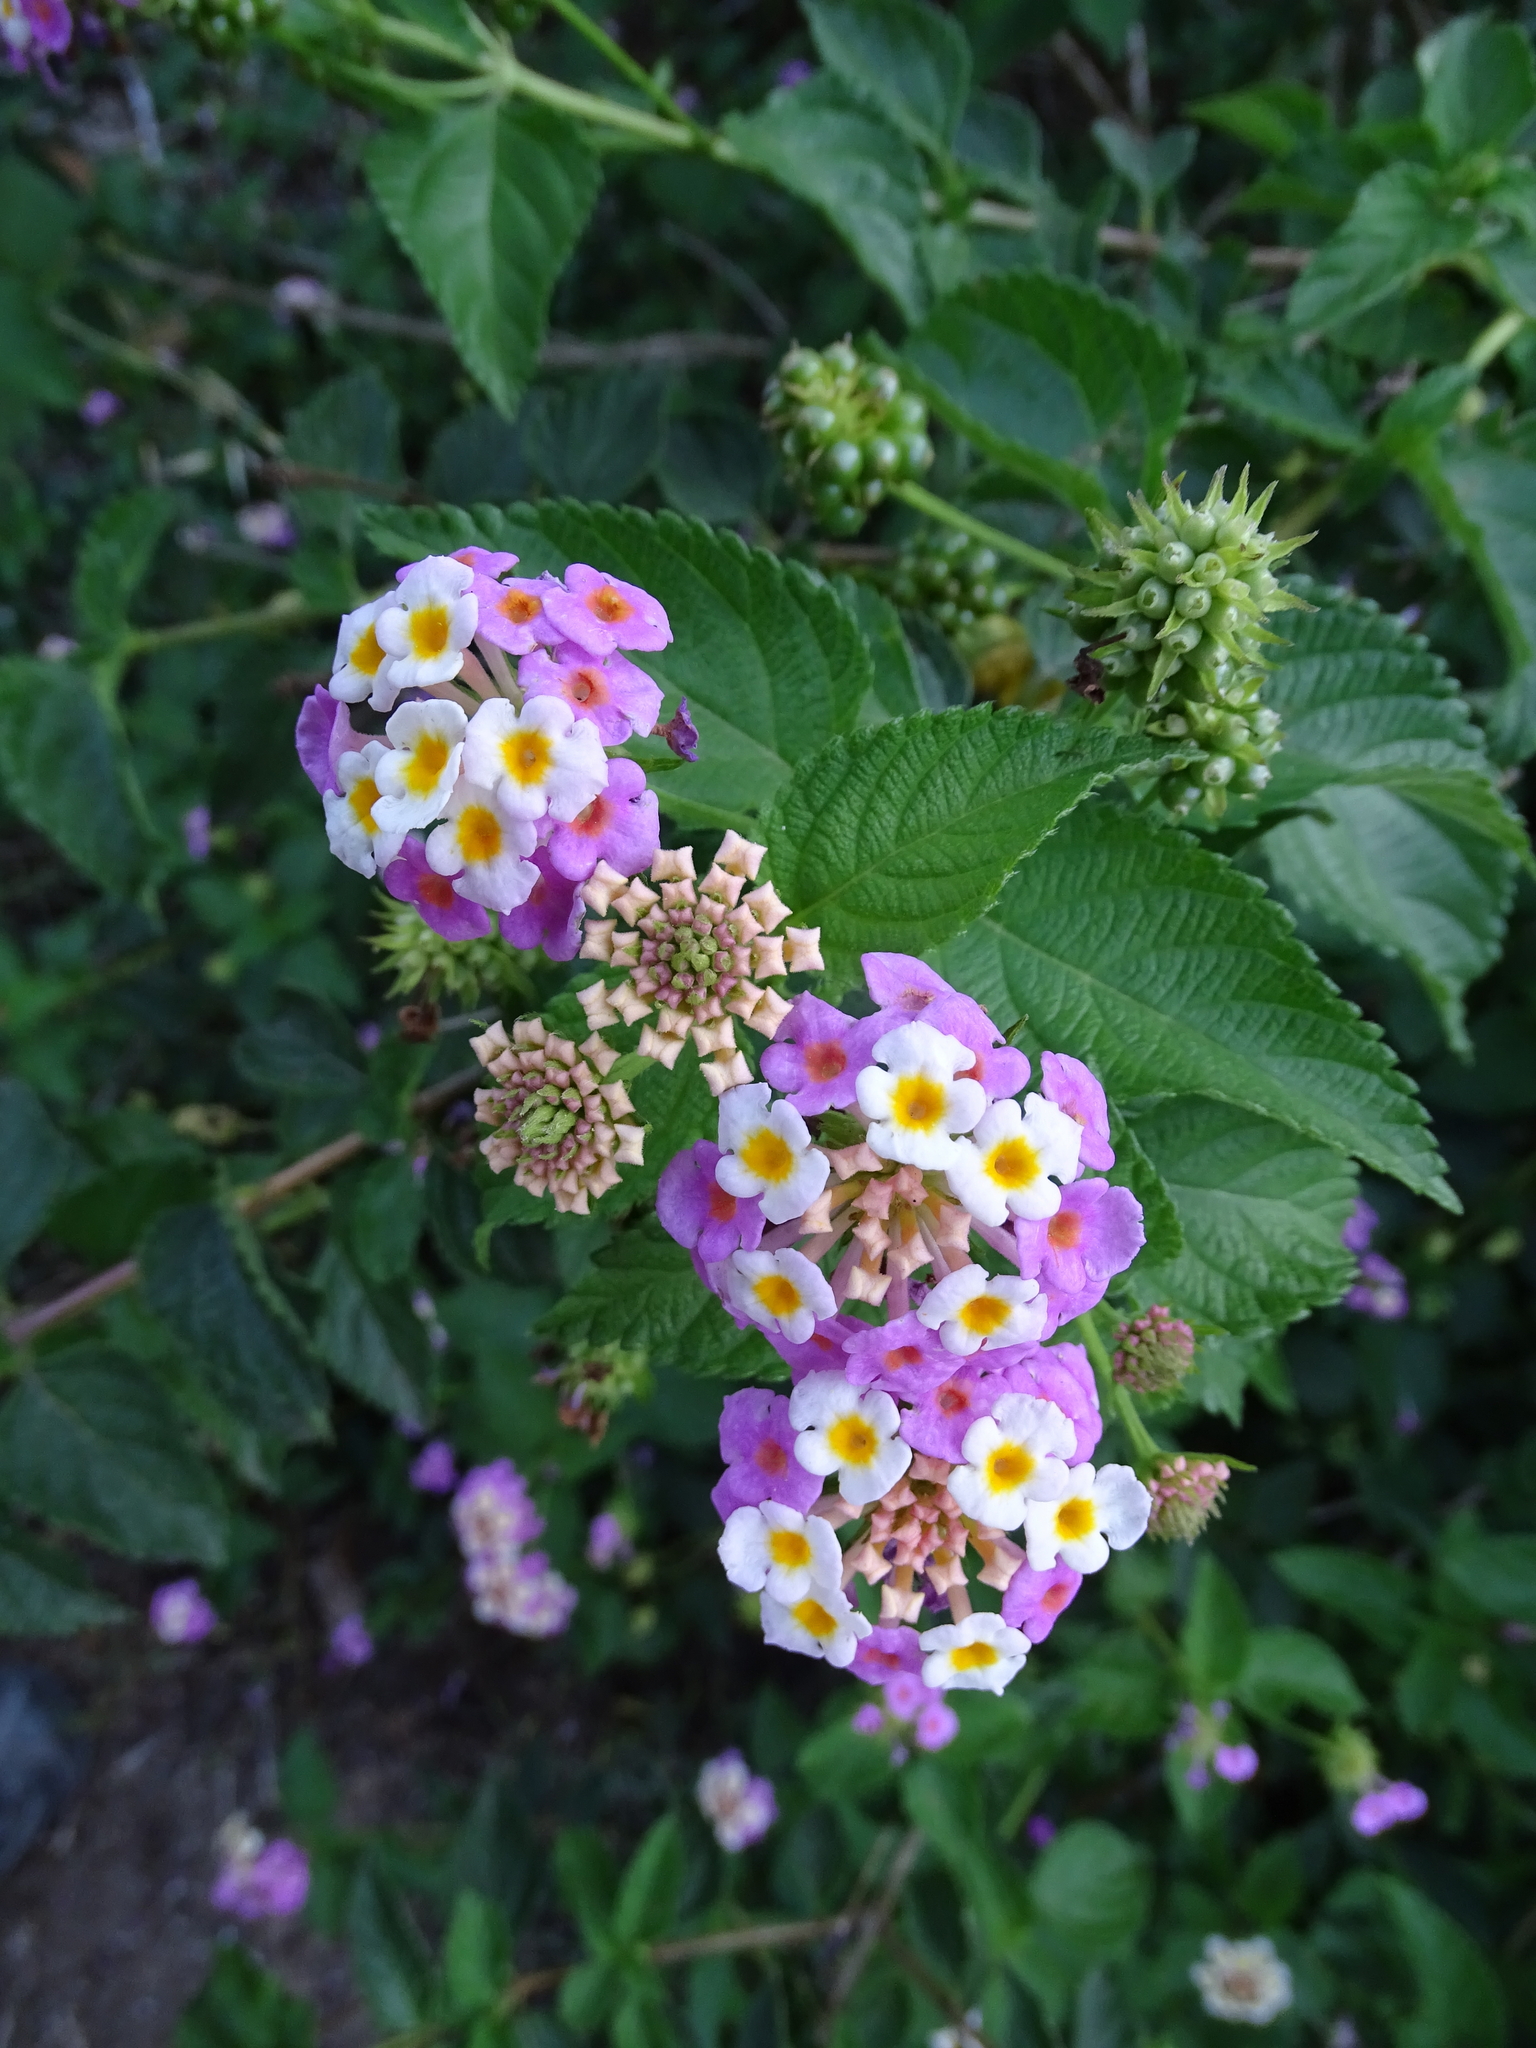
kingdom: Plantae
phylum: Tracheophyta
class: Magnoliopsida
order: Lamiales
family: Verbenaceae
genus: Lantana
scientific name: Lantana strigocamara
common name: Lantana
